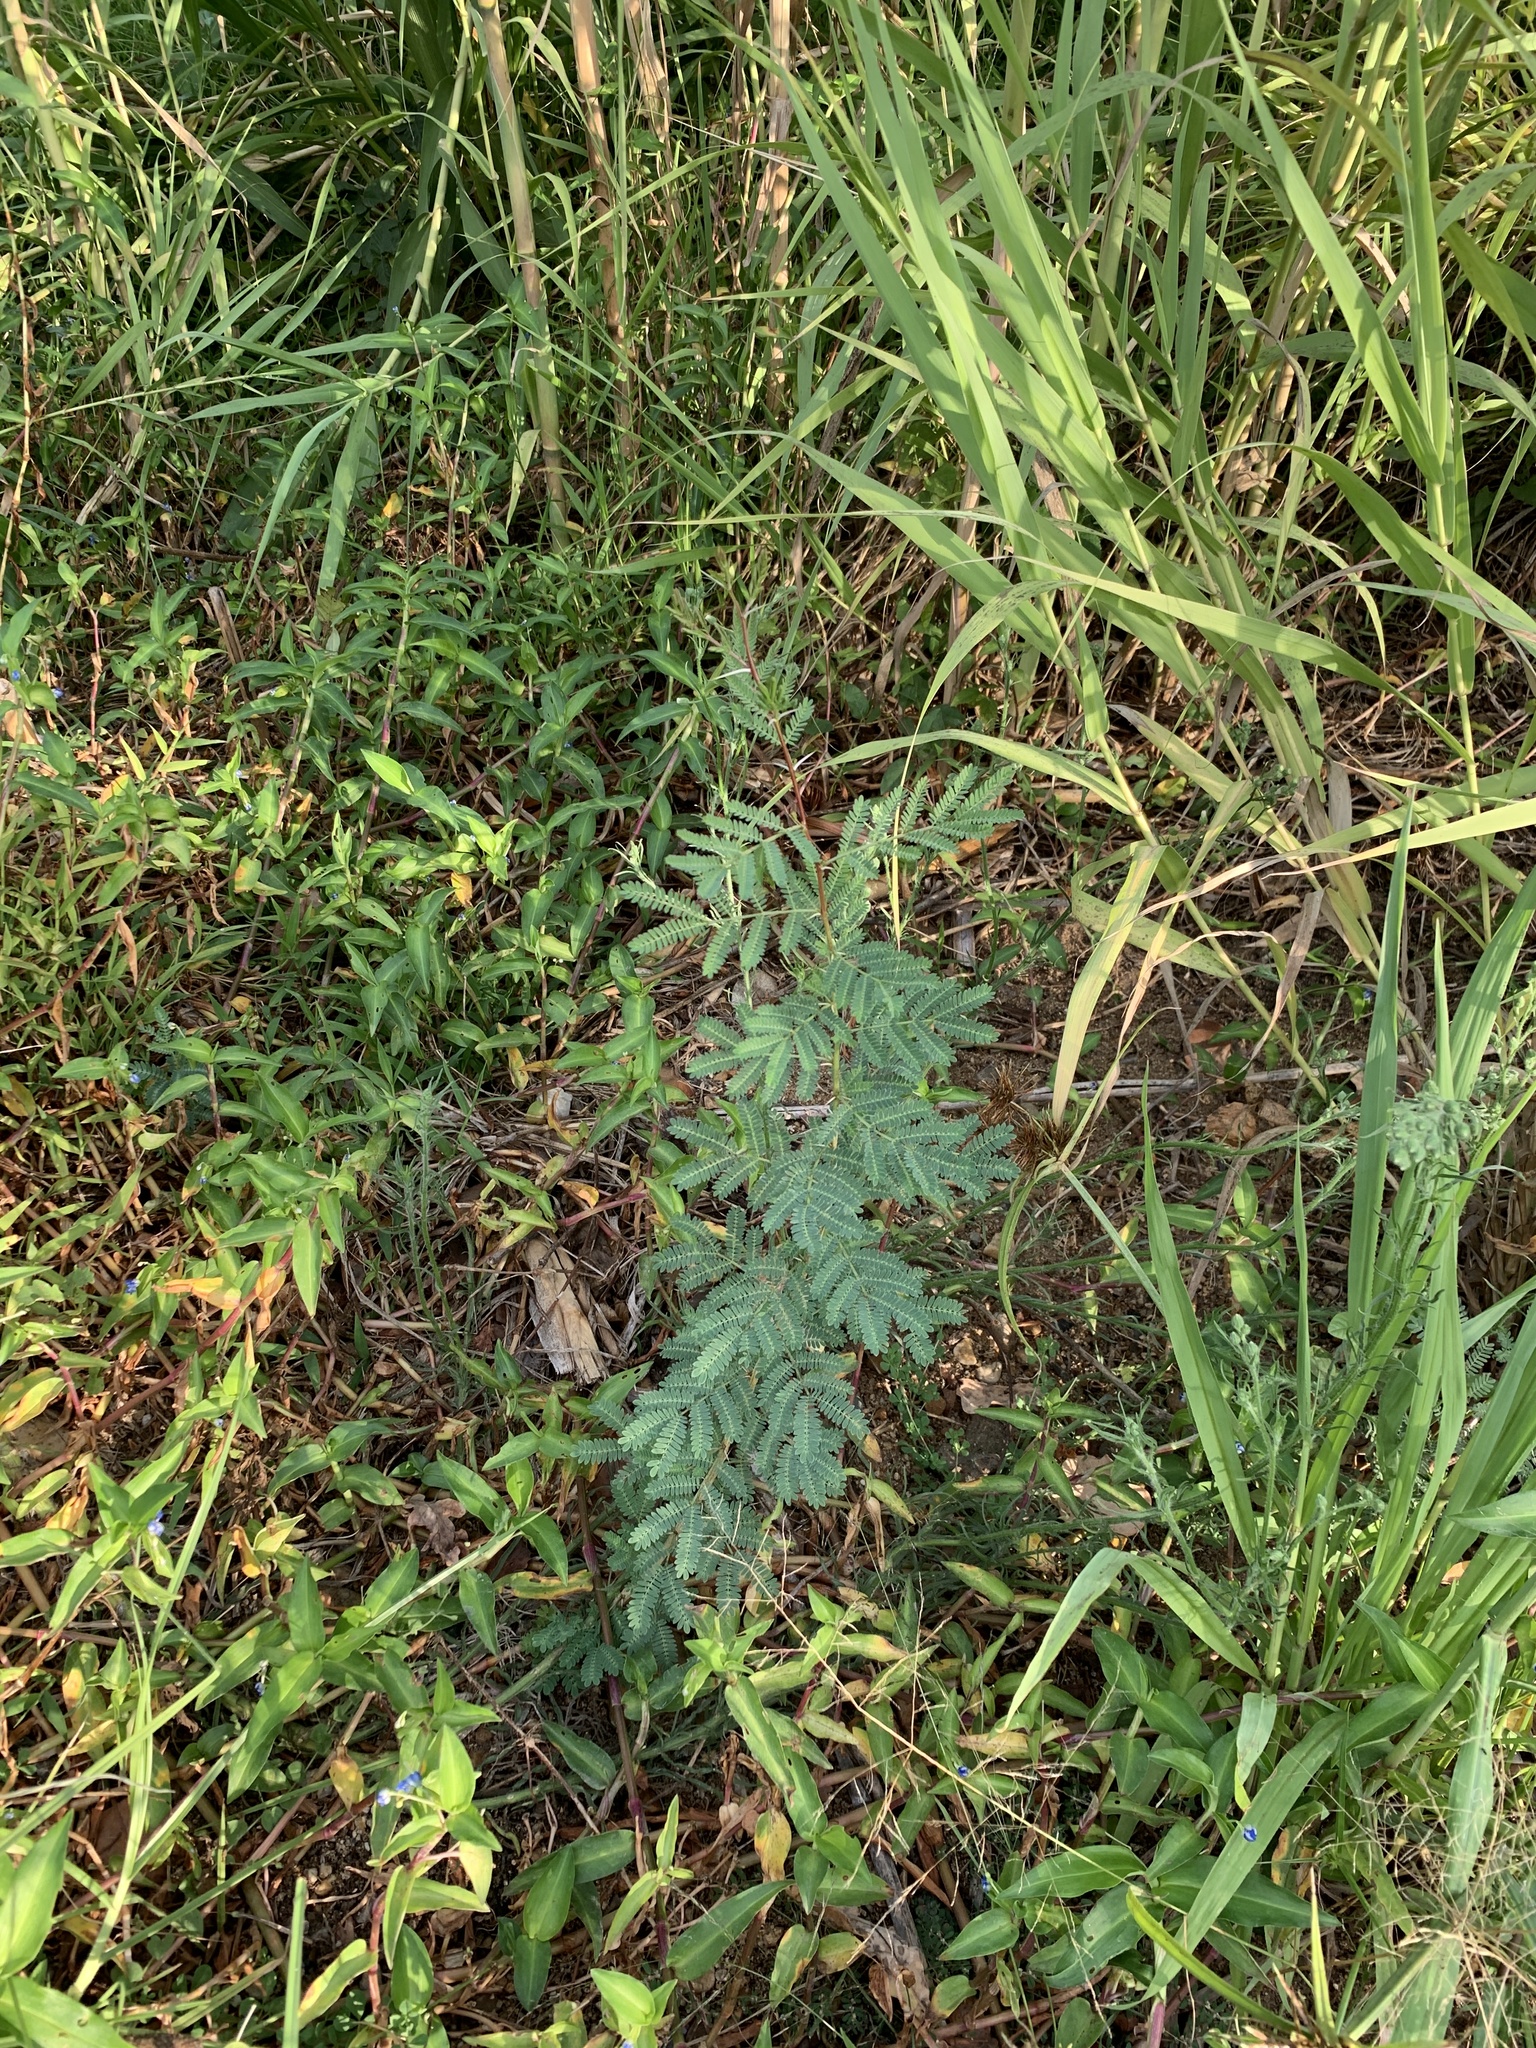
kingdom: Plantae
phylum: Tracheophyta
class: Magnoliopsida
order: Fabales
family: Fabaceae
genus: Vachellia
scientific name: Vachellia karroo
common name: Sweet thorn
